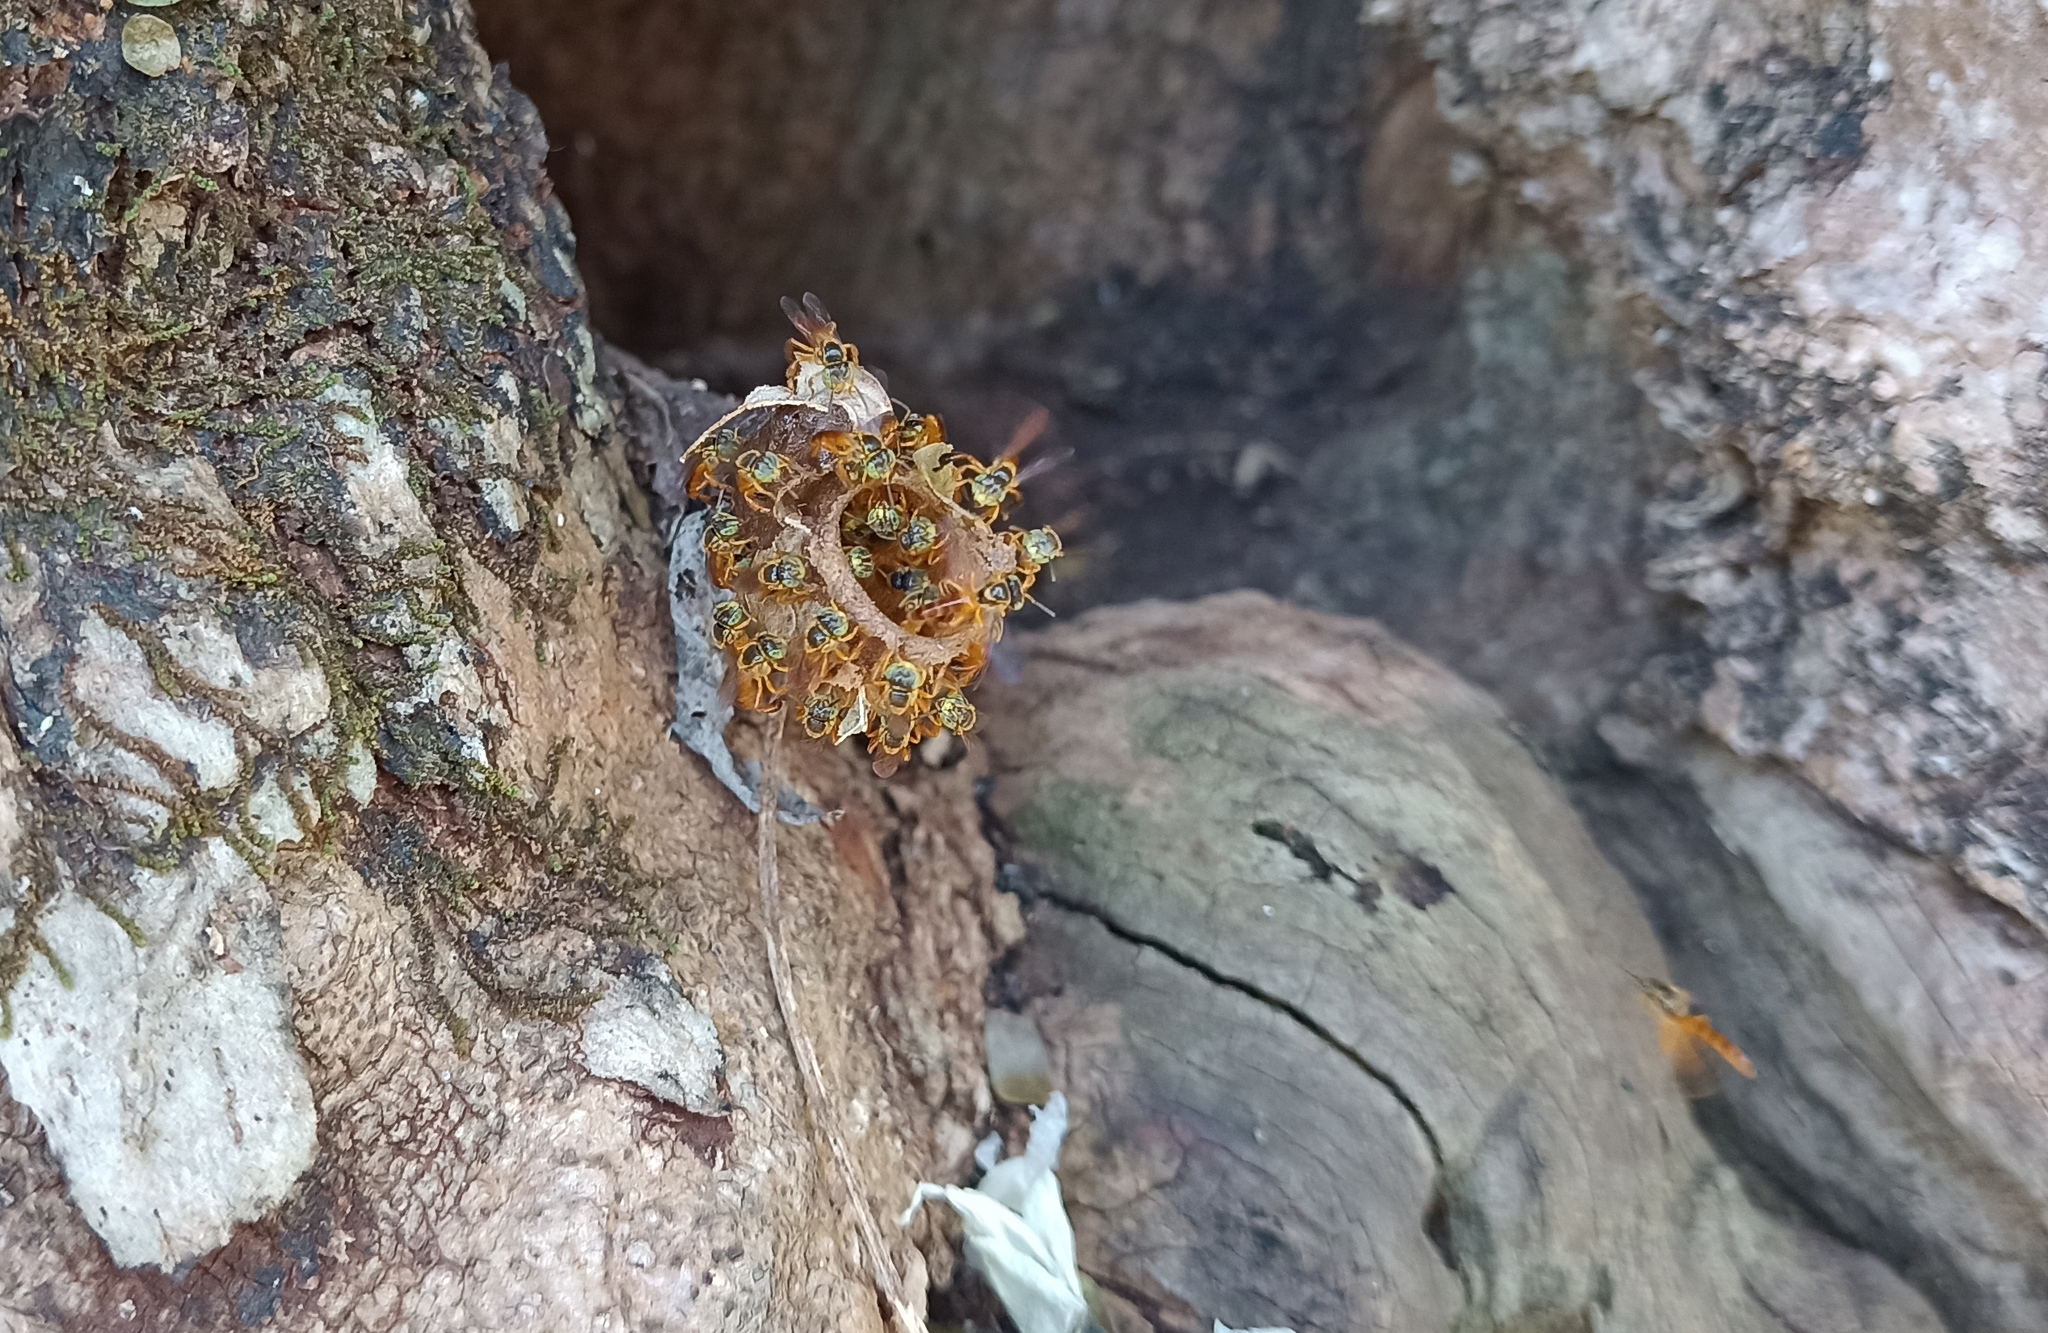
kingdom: Animalia
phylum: Arthropoda
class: Insecta
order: Hymenoptera
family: Apidae
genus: Tetragonisca
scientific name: Tetragonisca angustula
